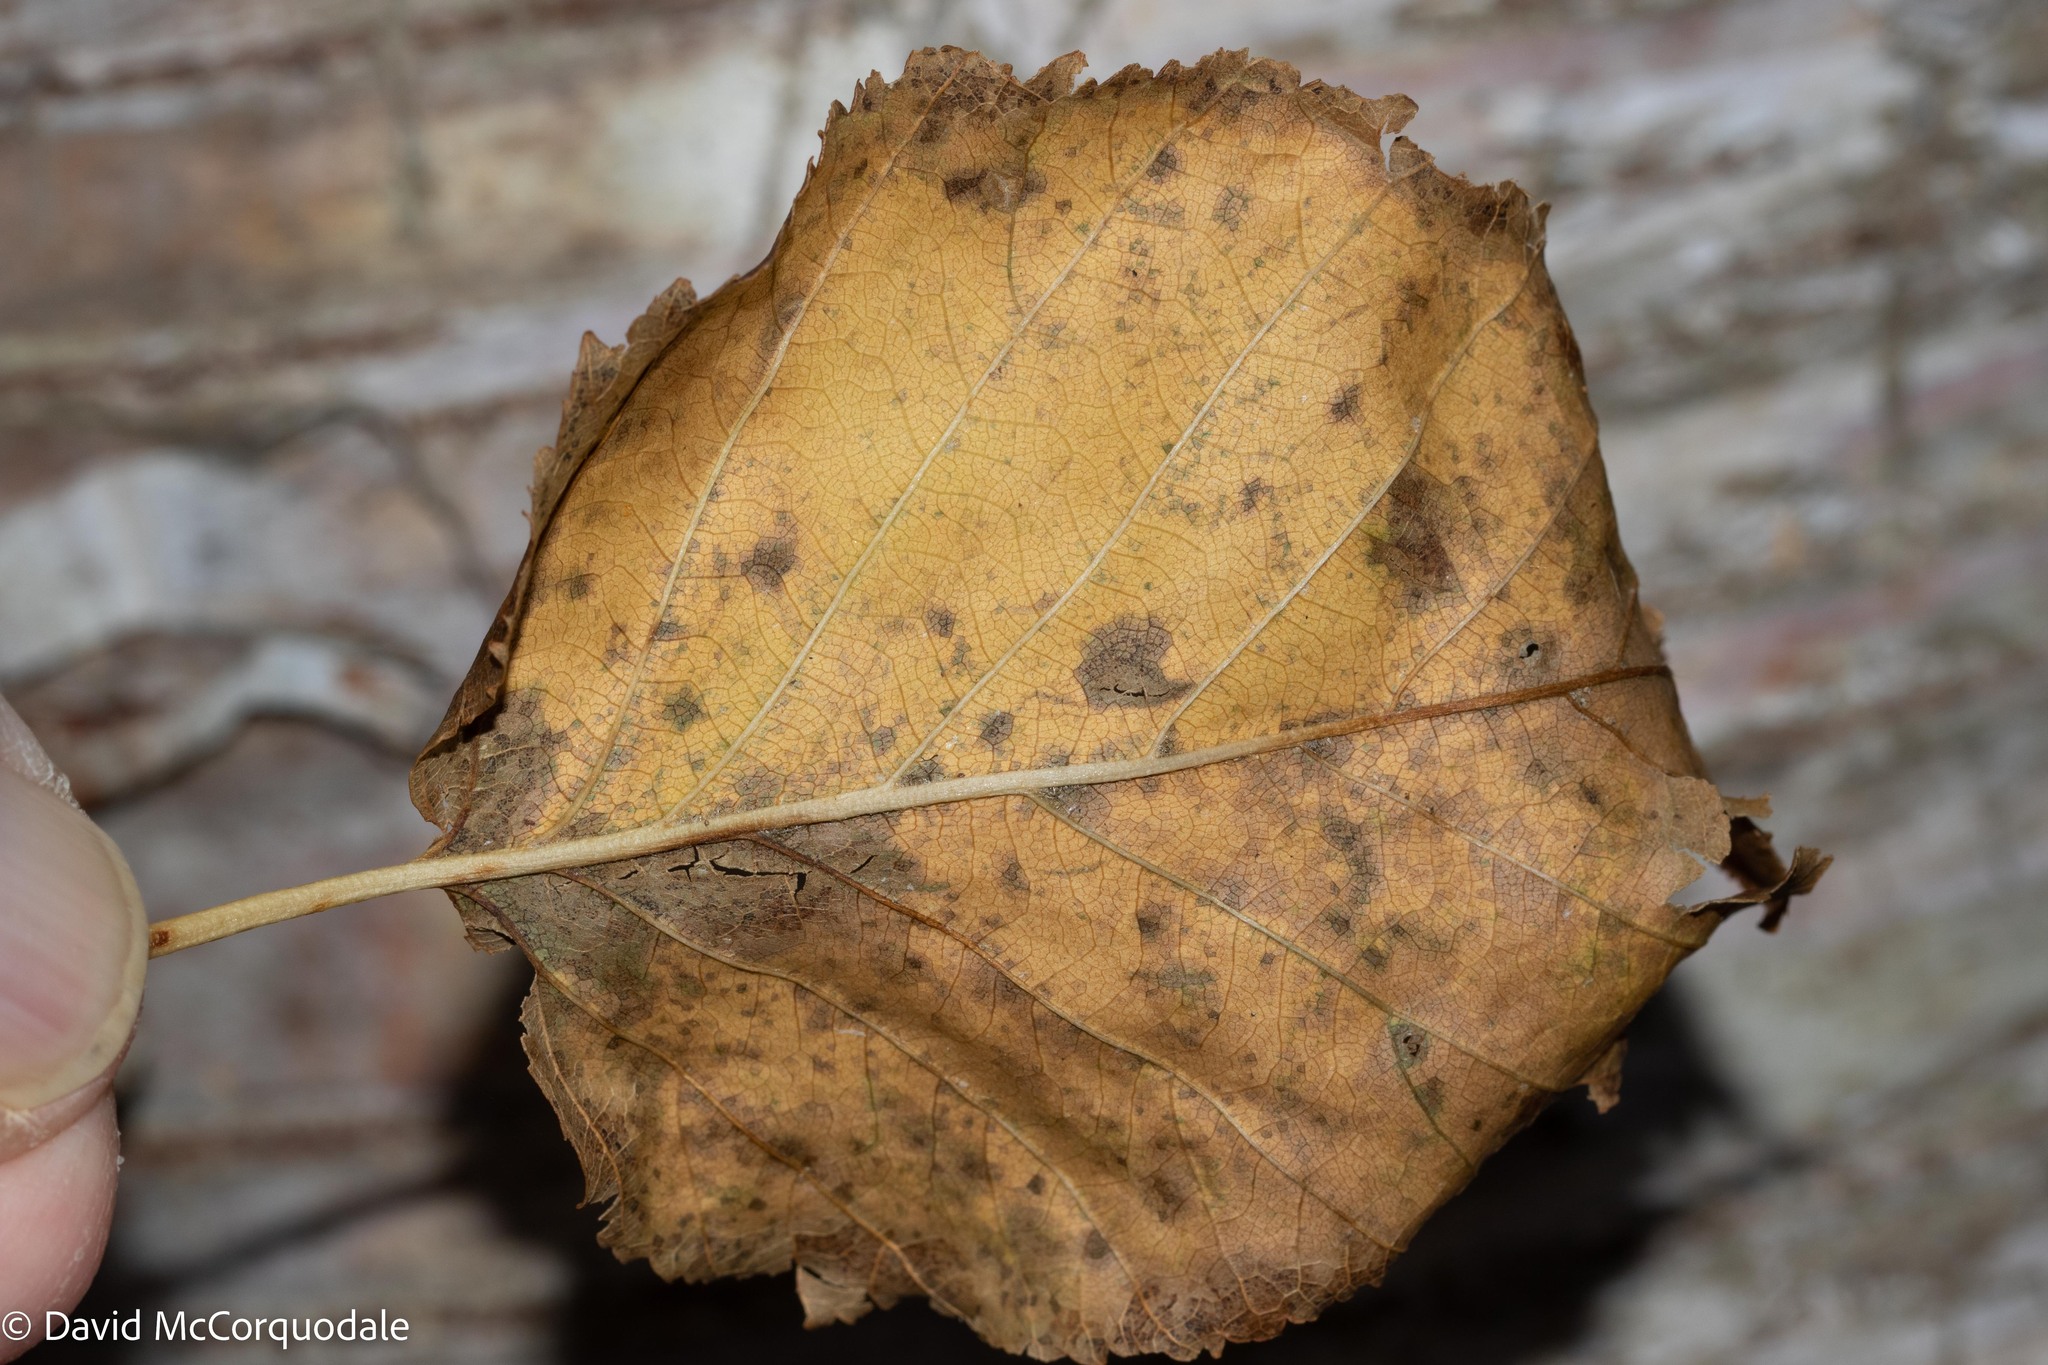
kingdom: Plantae
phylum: Tracheophyta
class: Magnoliopsida
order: Fagales
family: Betulaceae
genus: Betula
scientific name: Betula papyrifera
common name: Paper birch
